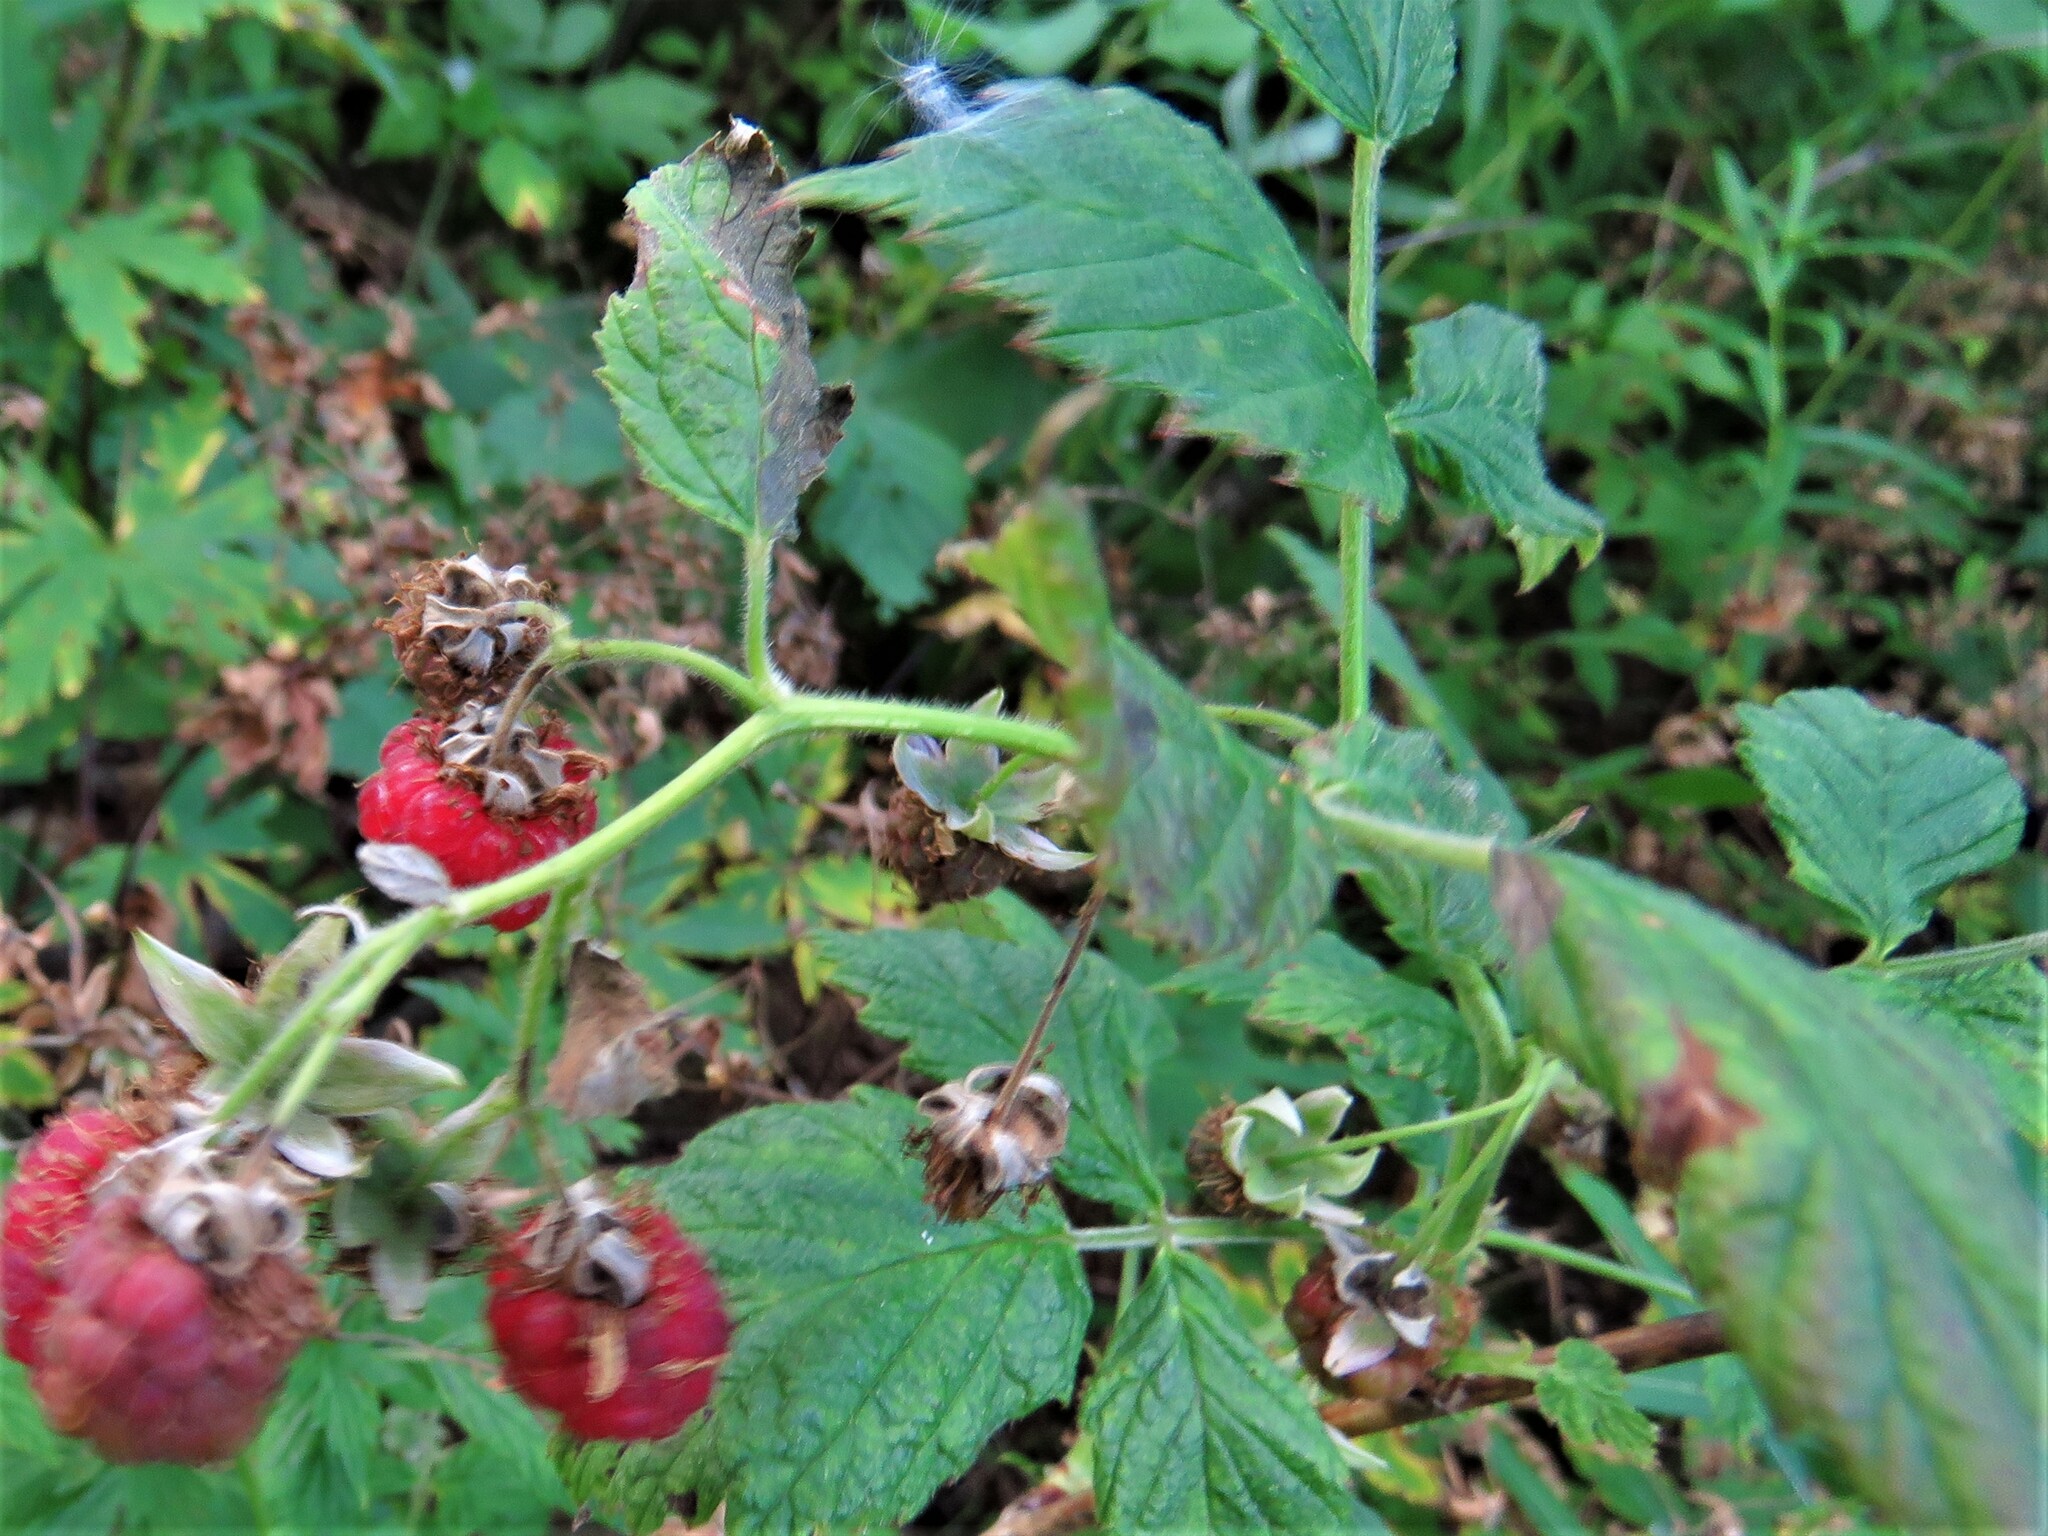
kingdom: Plantae
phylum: Tracheophyta
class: Magnoliopsida
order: Rosales
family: Rosaceae
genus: Rubus
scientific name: Rubus idaeus
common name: Raspberry
